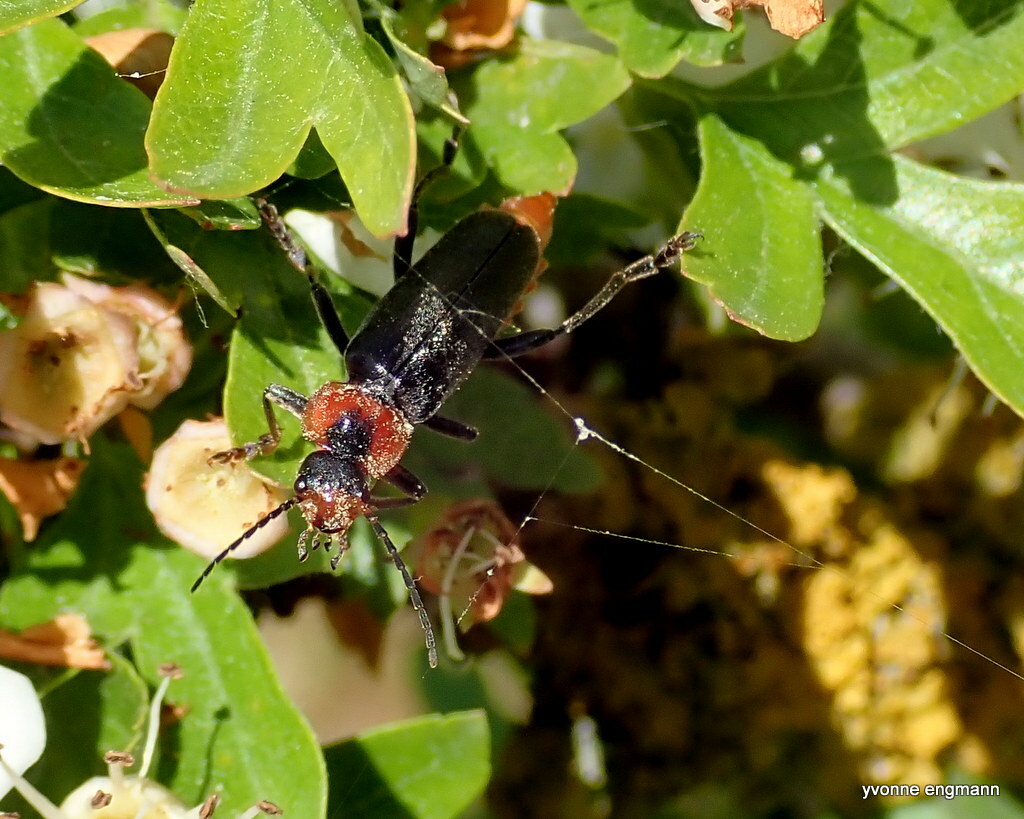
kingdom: Animalia
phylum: Arthropoda
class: Insecta
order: Coleoptera
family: Cantharidae
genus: Cantharis
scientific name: Cantharis fusca
